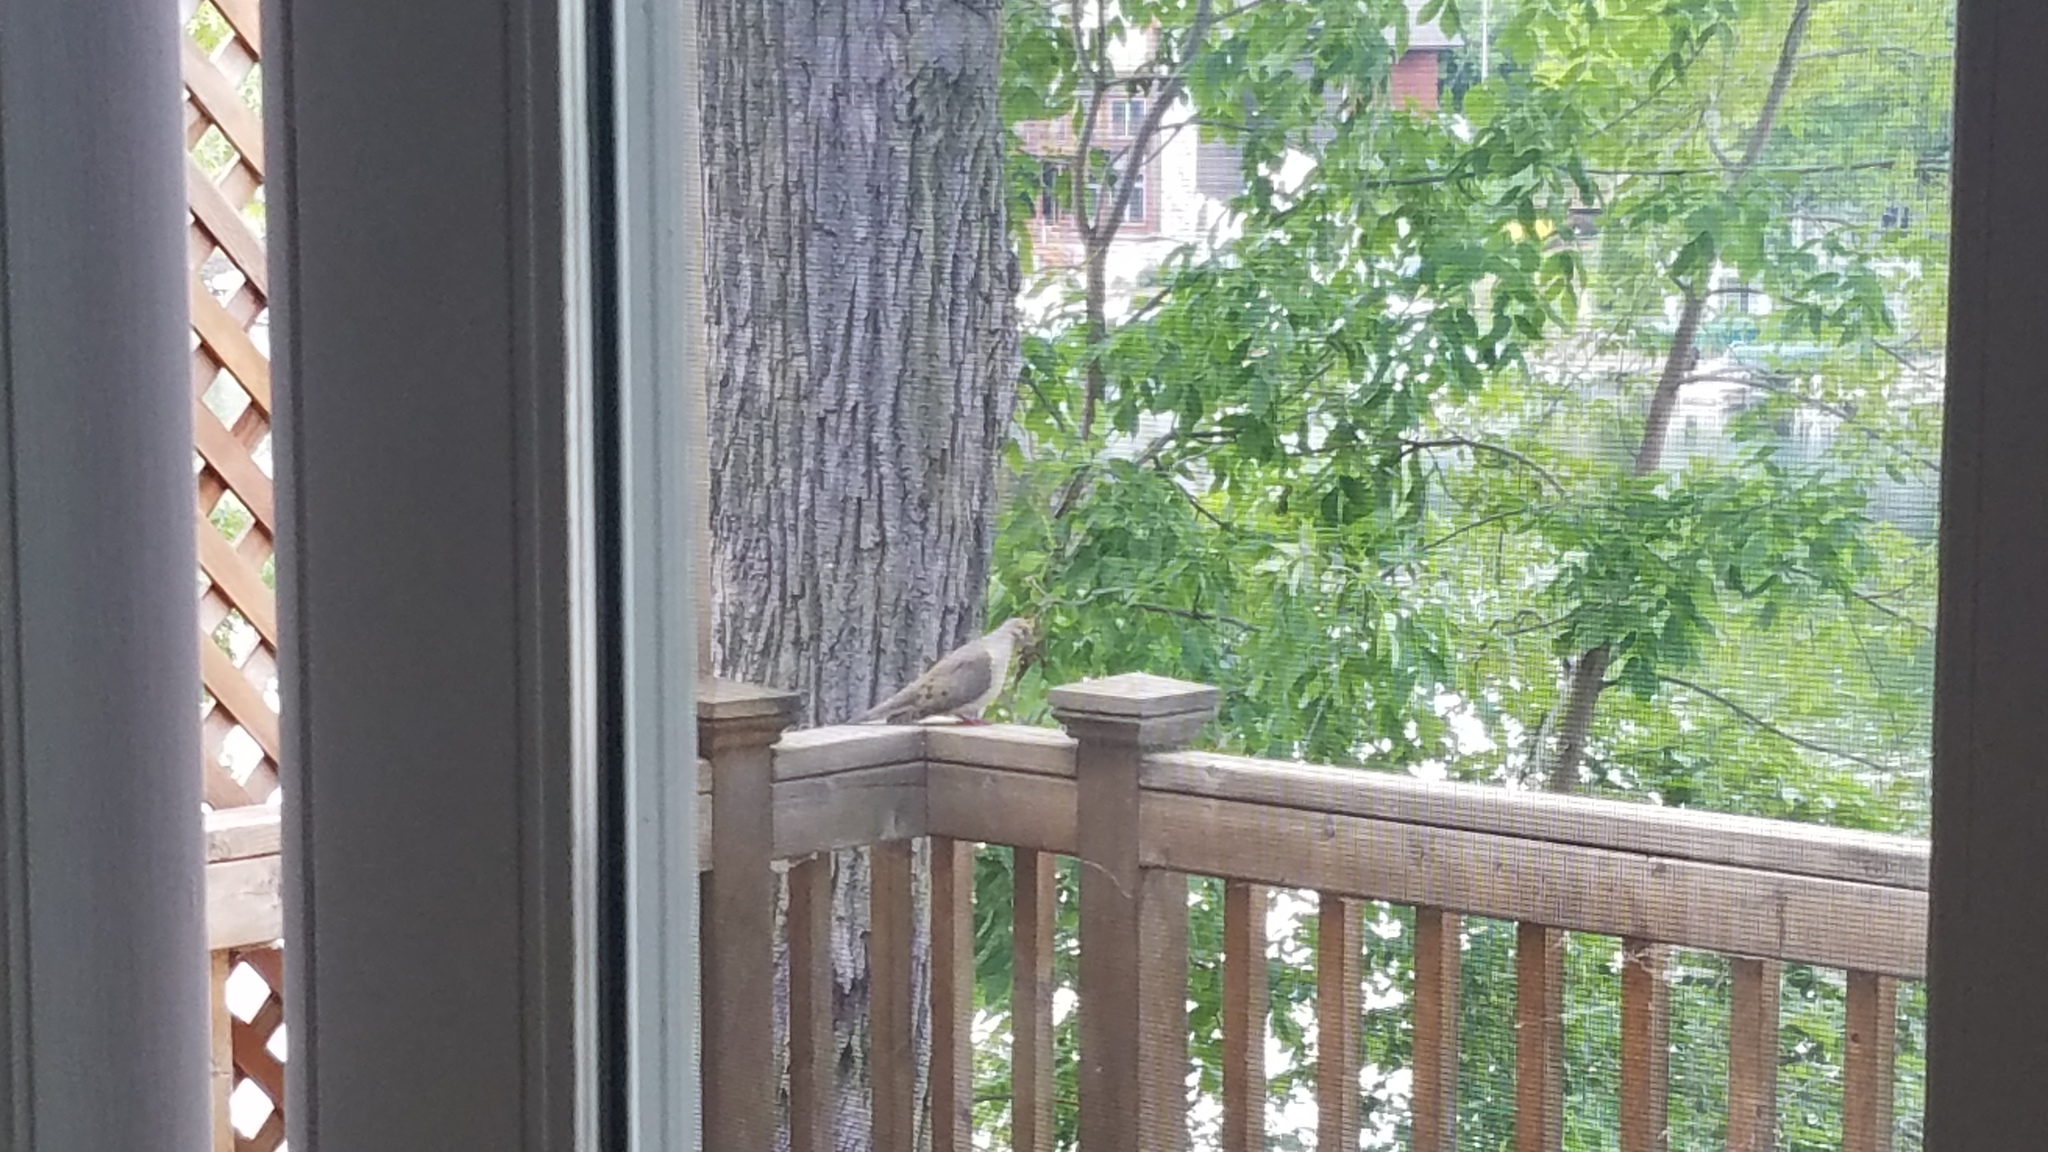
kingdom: Animalia
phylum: Chordata
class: Aves
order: Columbiformes
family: Columbidae
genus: Zenaida
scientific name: Zenaida macroura
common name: Mourning dove
